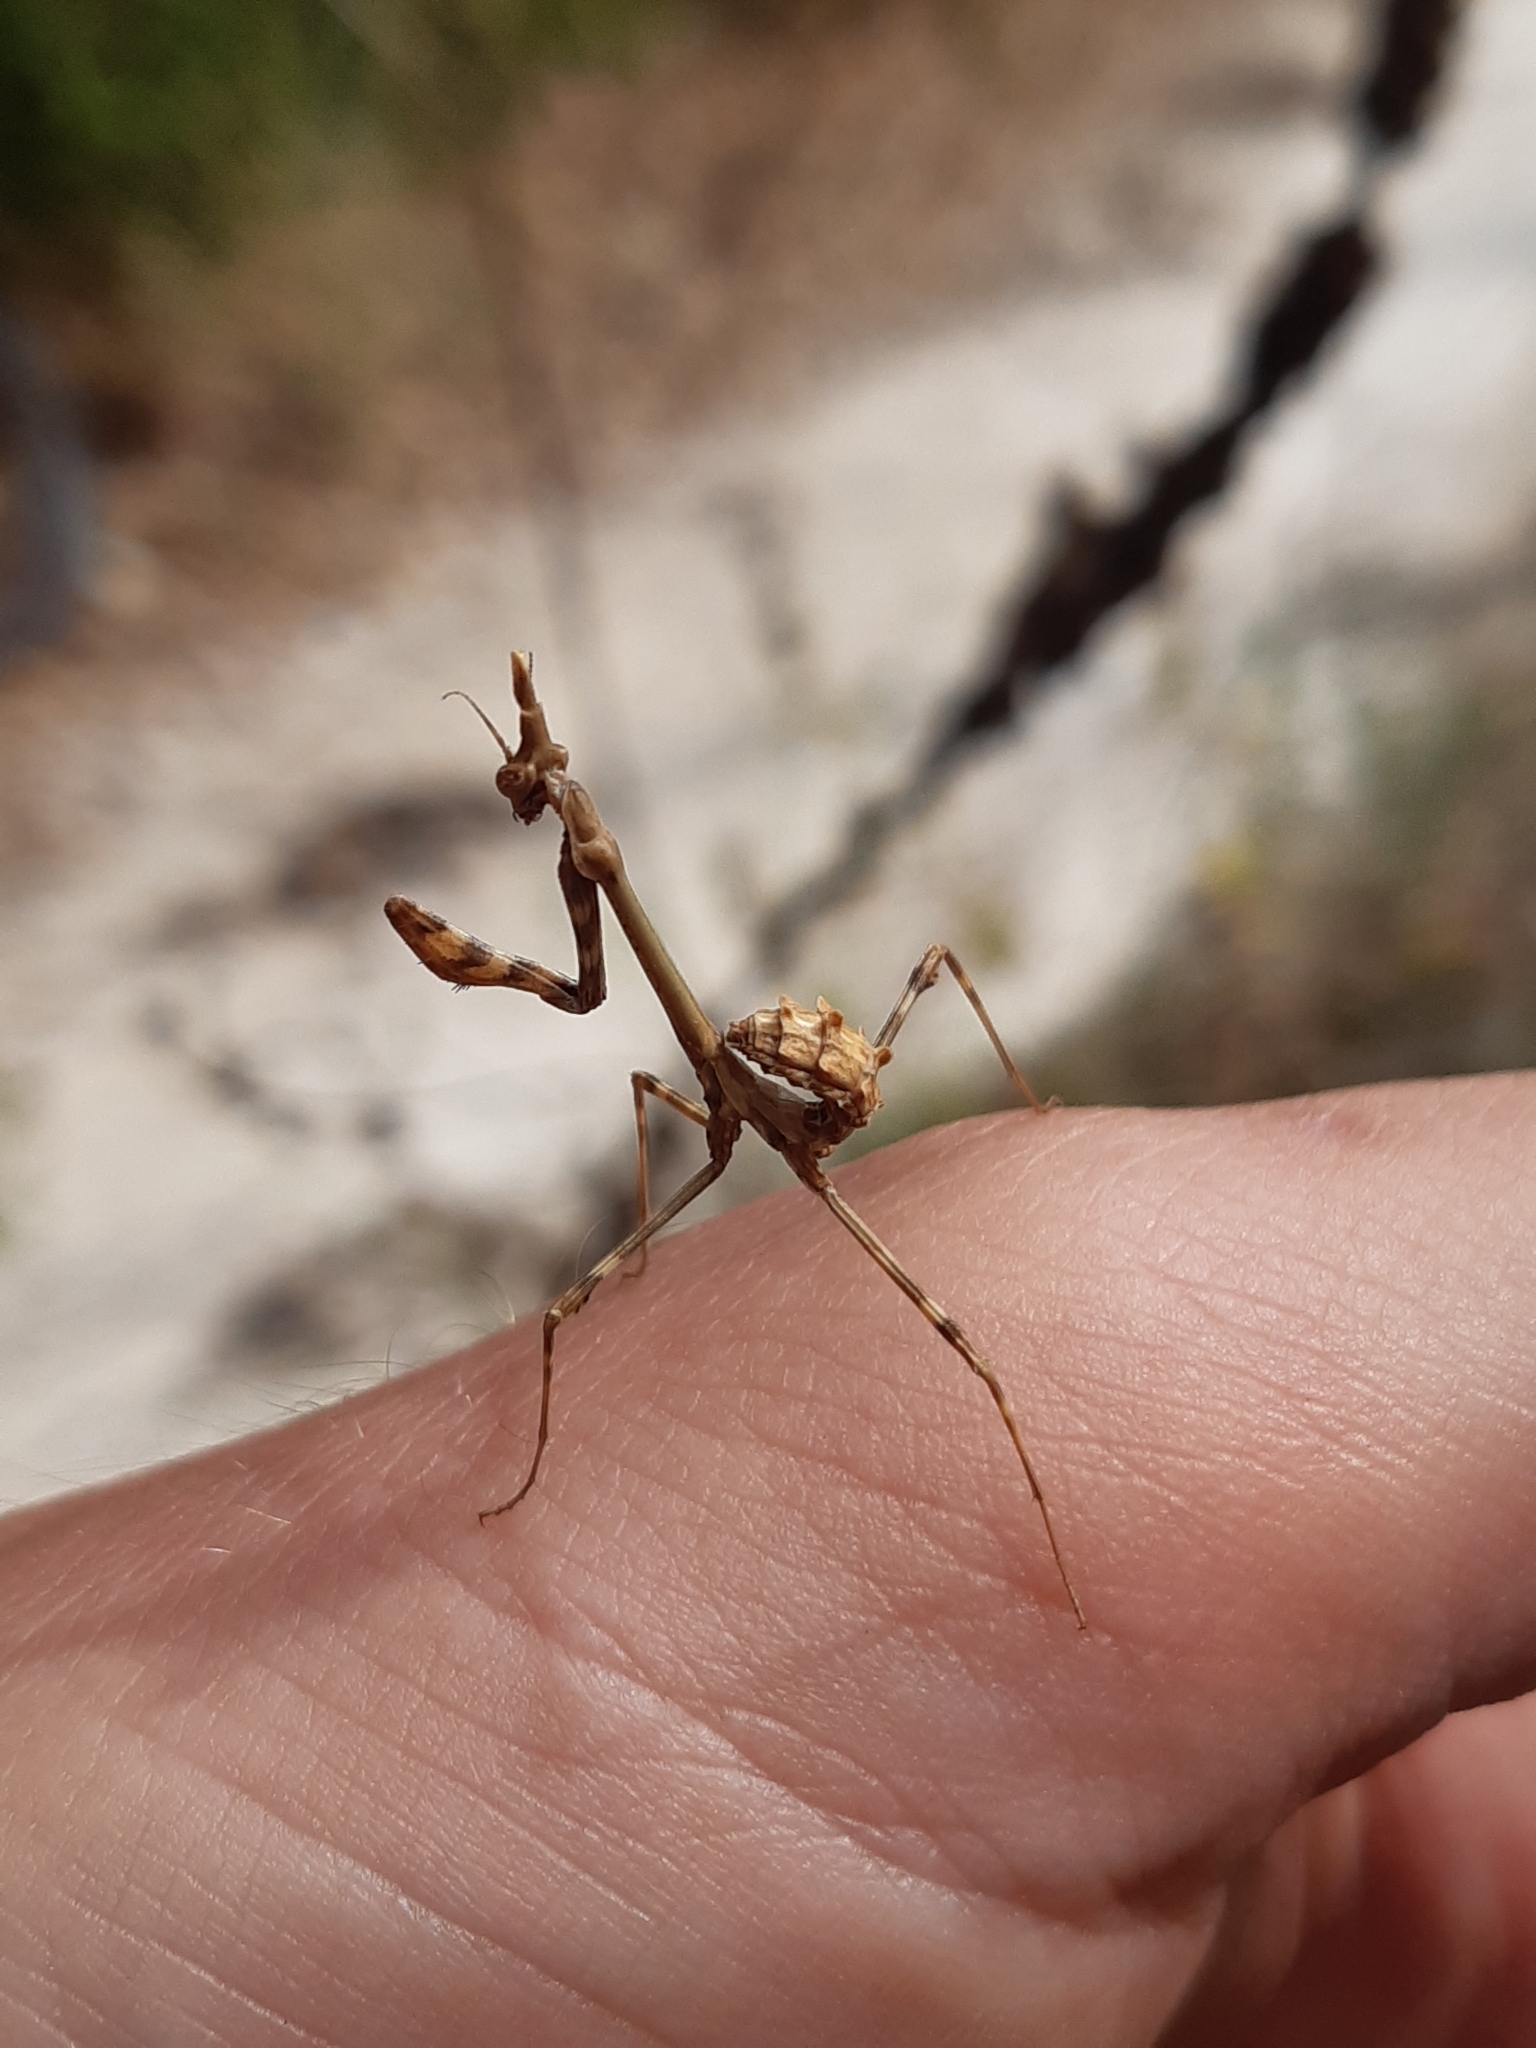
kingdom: Animalia
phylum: Arthropoda
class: Insecta
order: Mantodea
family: Empusidae
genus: Empusa
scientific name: Empusa pennata
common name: Conehead mantis
